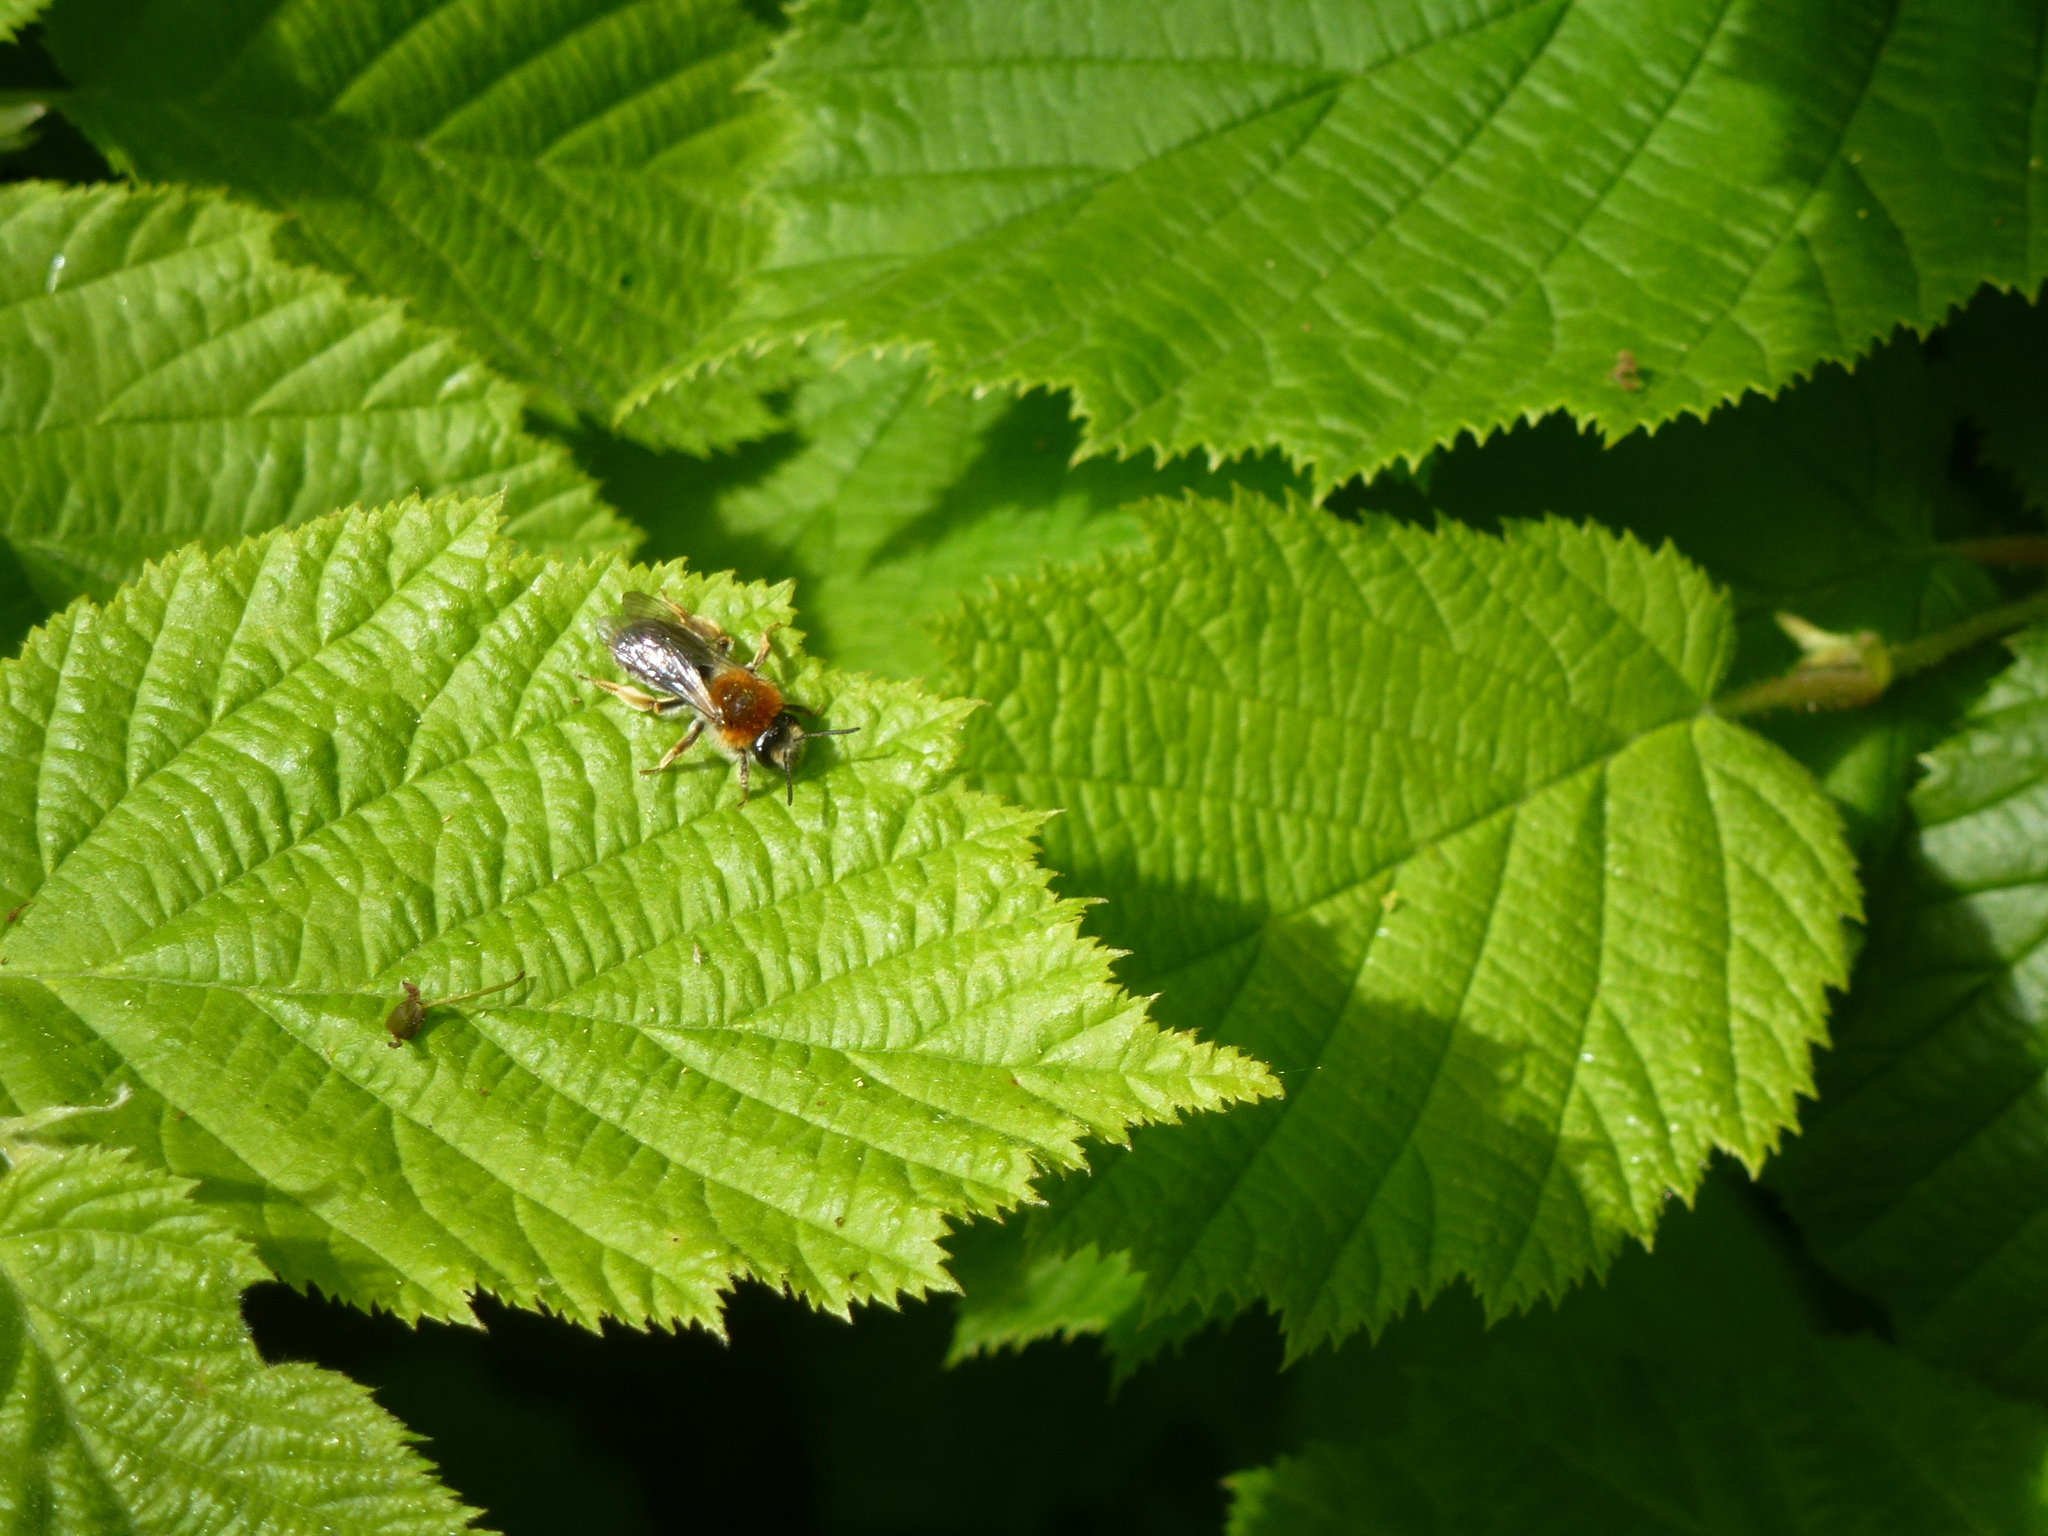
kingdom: Animalia
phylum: Arthropoda
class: Insecta
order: Hymenoptera
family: Andrenidae
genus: Andrena
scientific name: Andrena haemorrhoa
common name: Early mining bee
